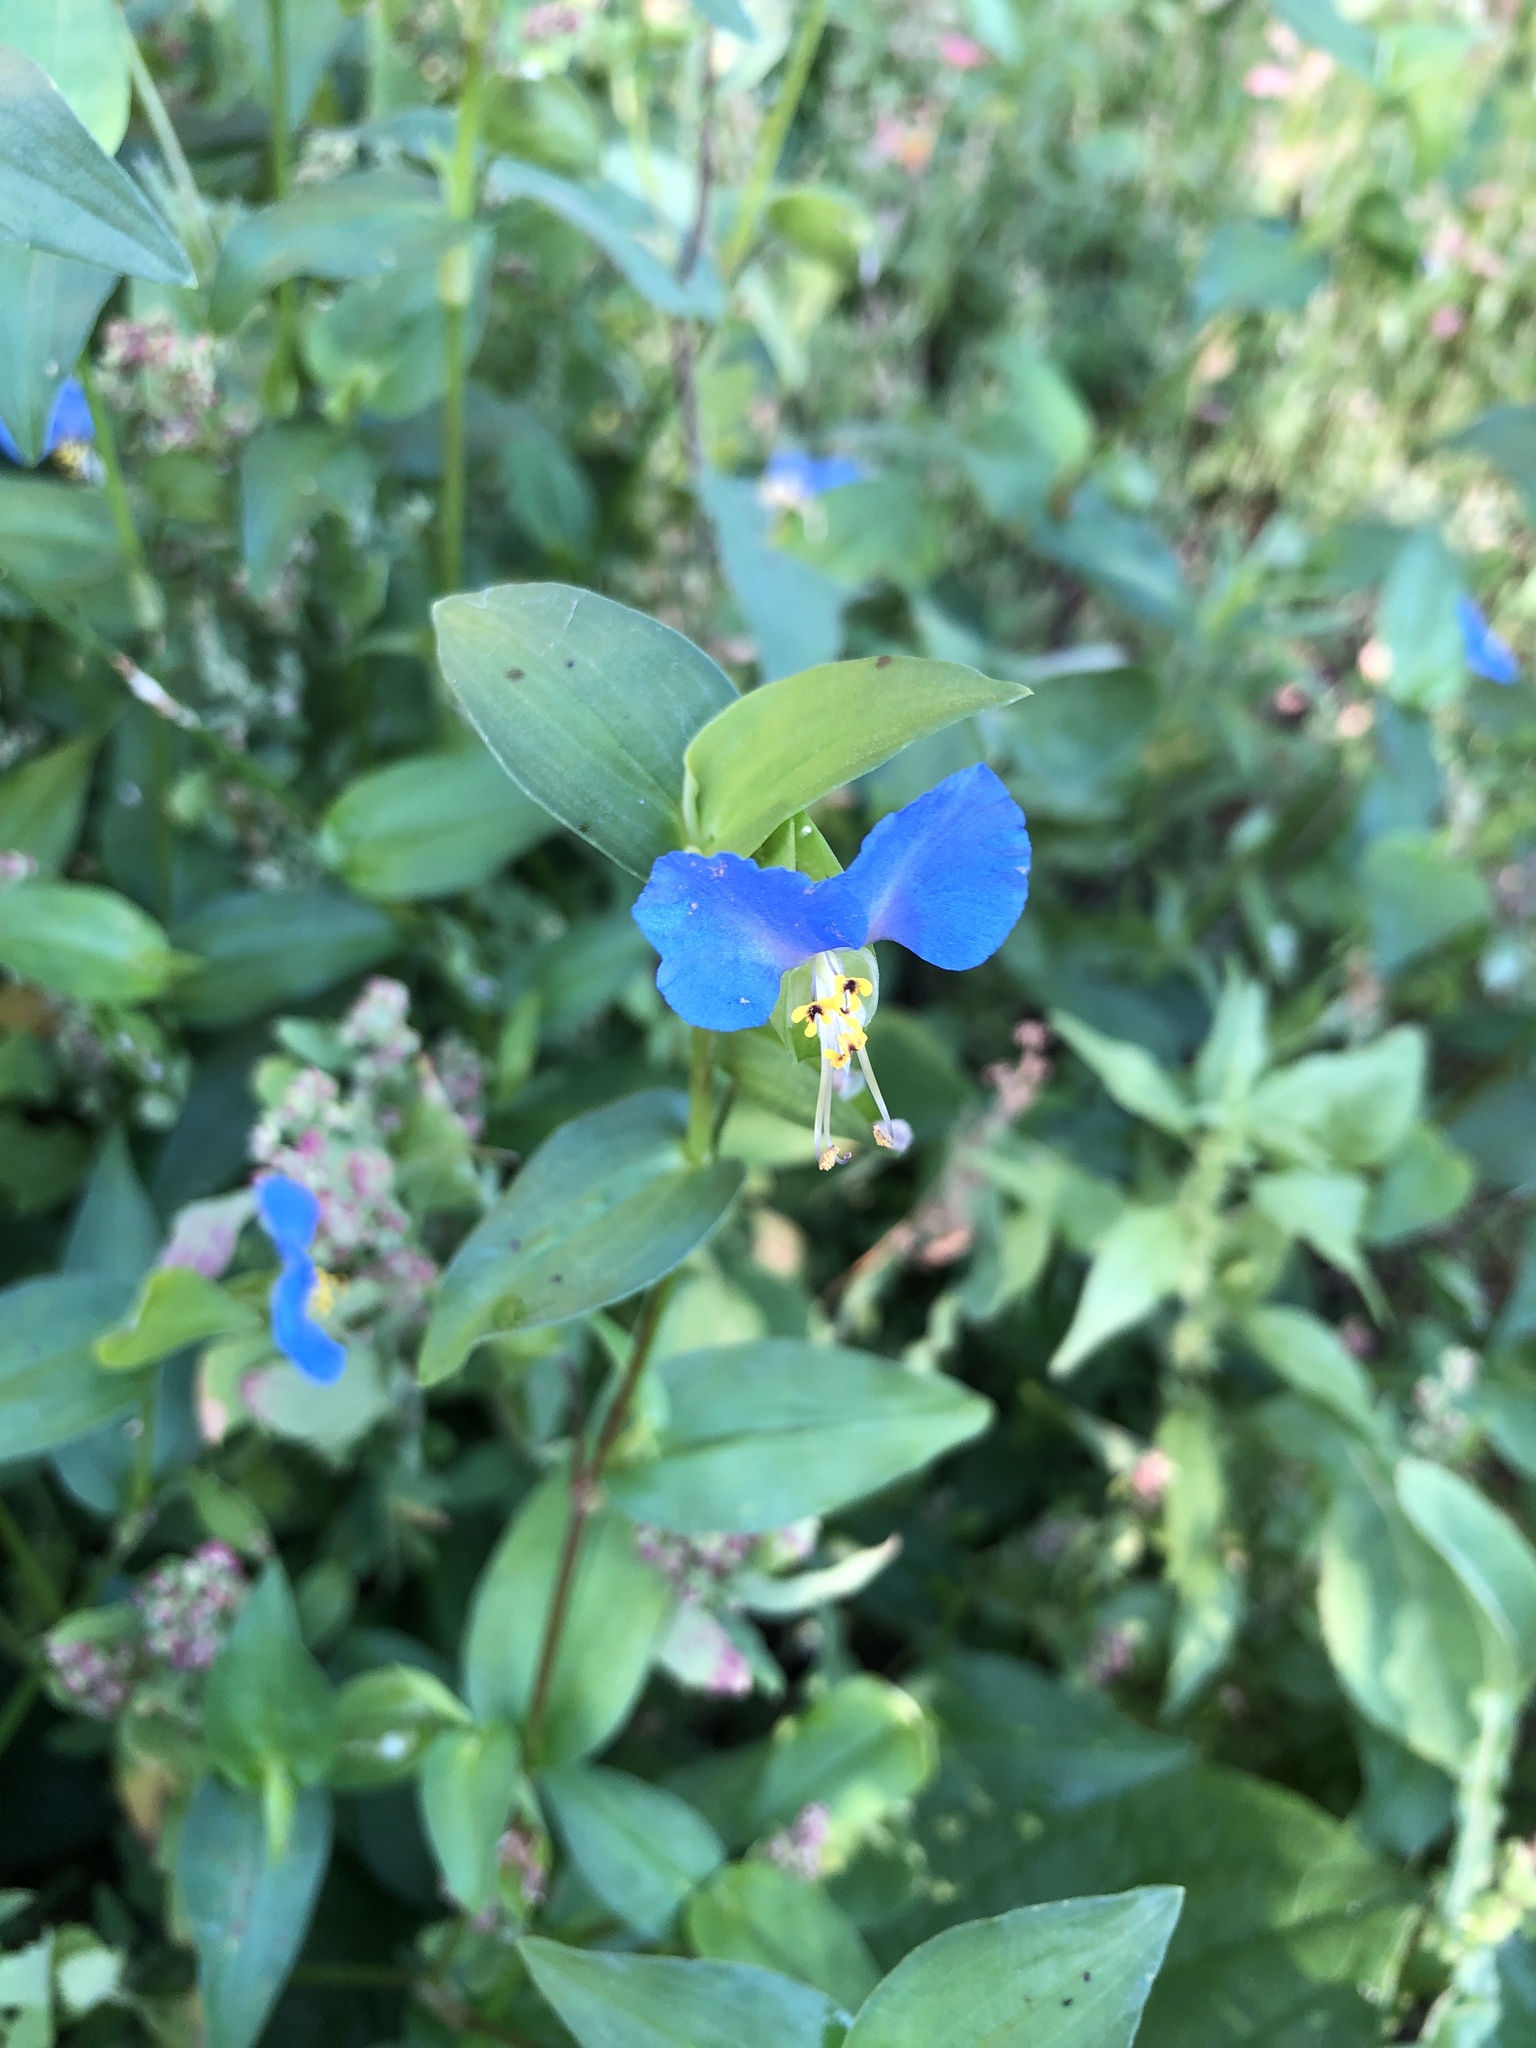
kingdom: Plantae
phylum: Tracheophyta
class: Liliopsida
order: Commelinales
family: Commelinaceae
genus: Commelina
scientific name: Commelina communis
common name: Asiatic dayflower
